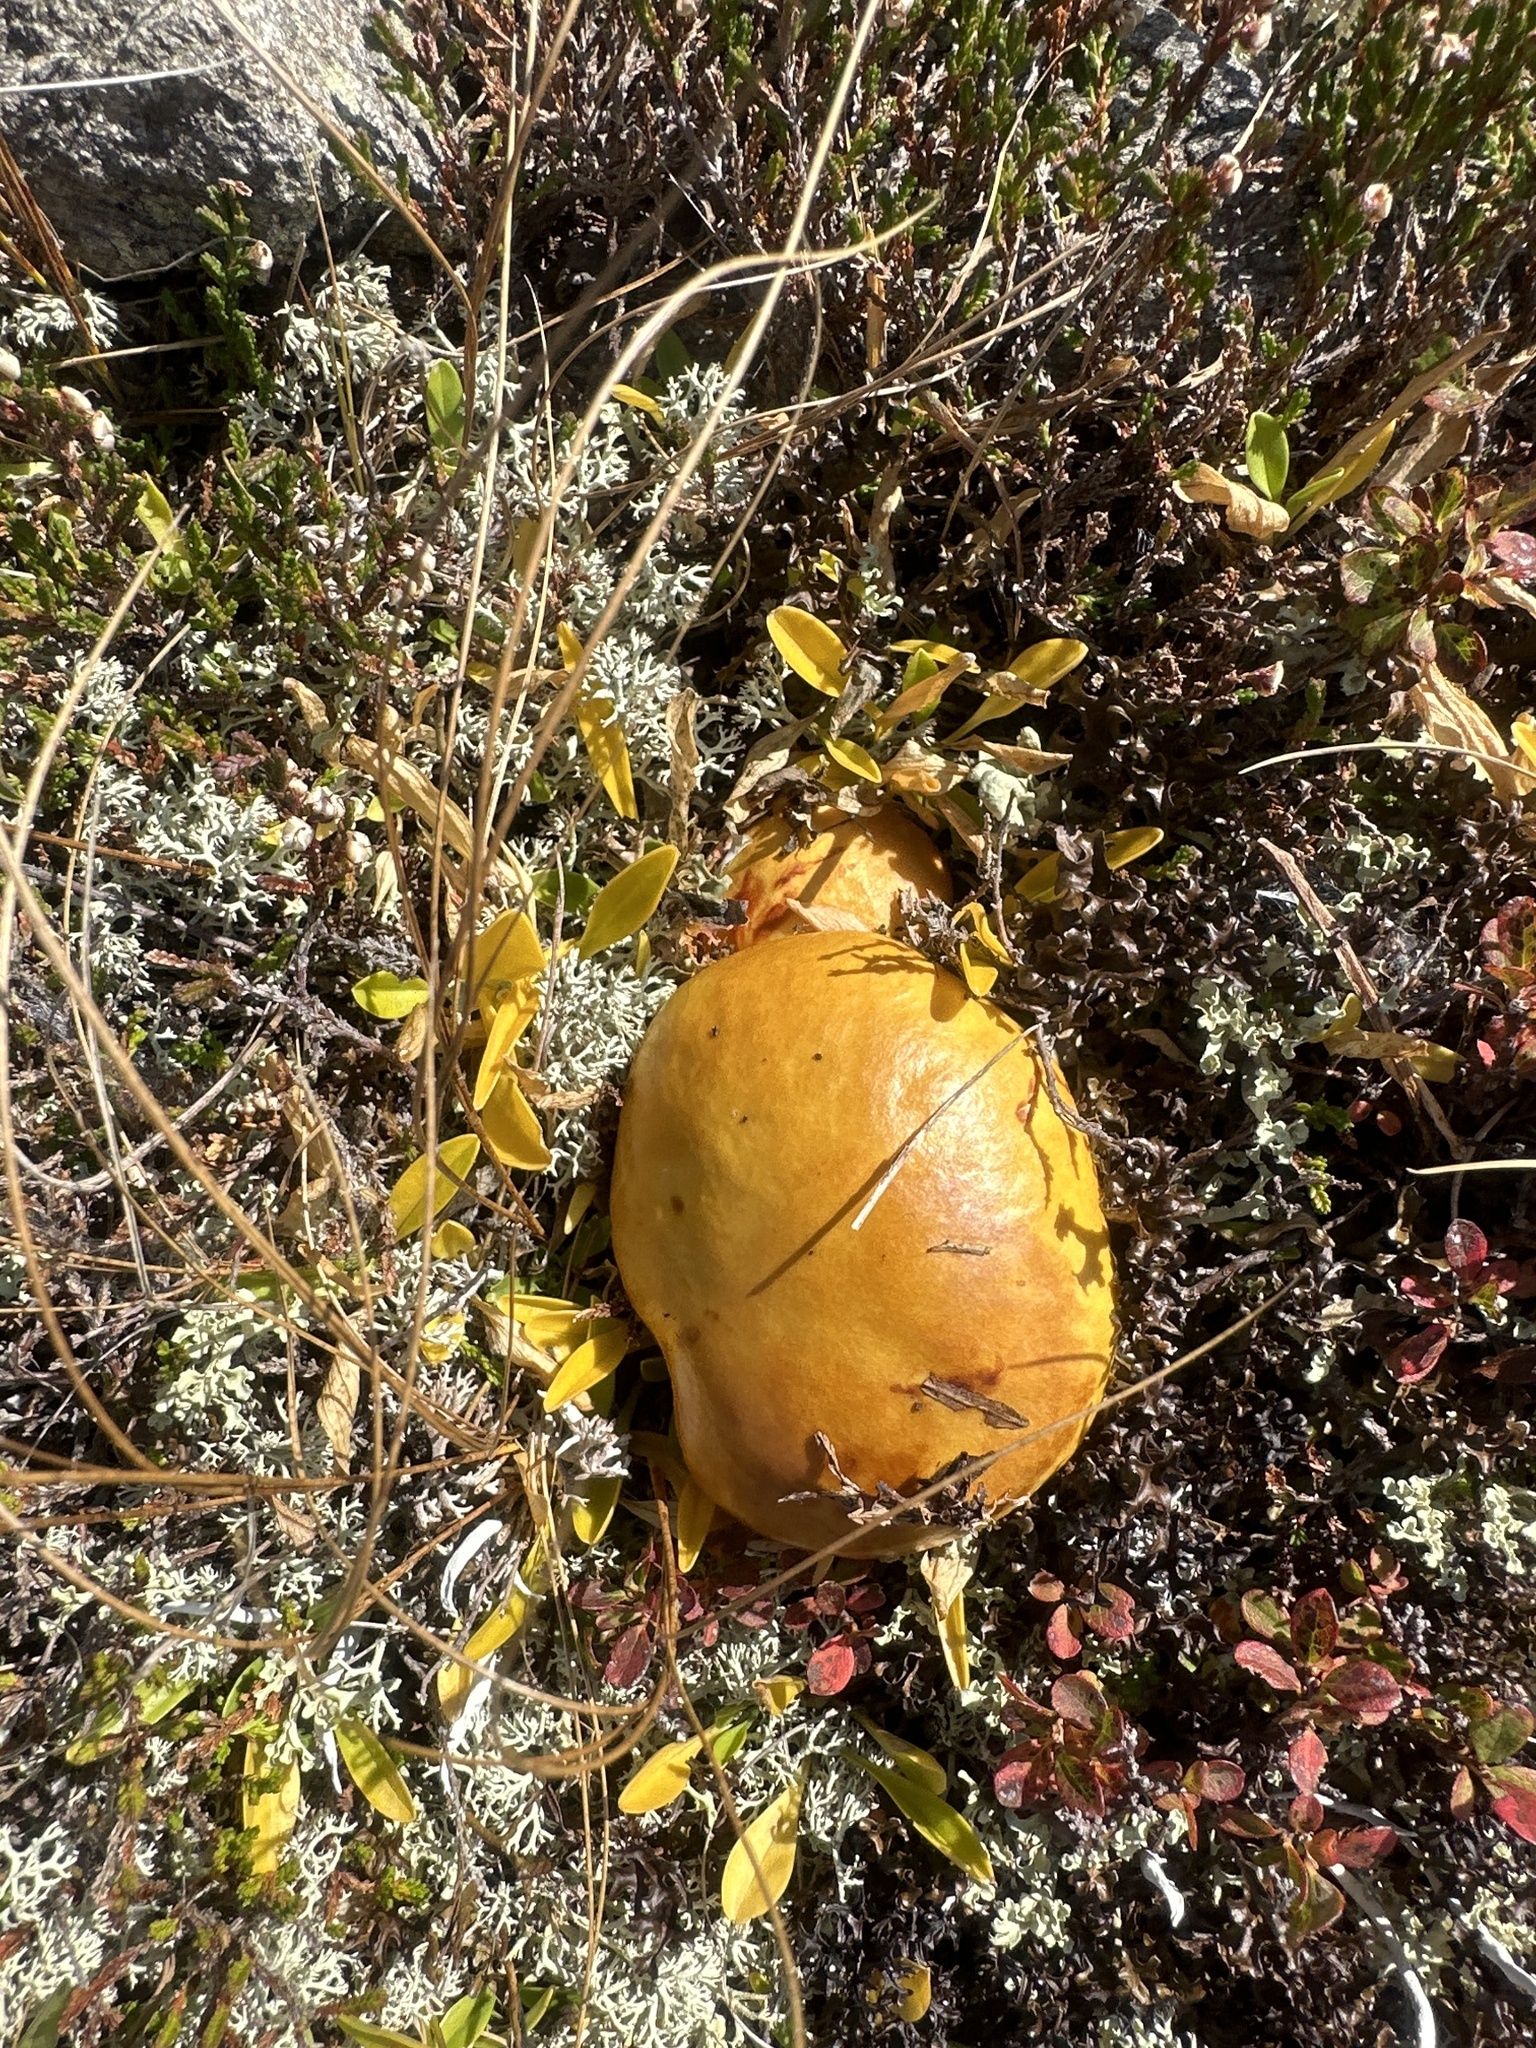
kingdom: Fungi
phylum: Basidiomycota
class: Agaricomycetes
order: Boletales
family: Suillaceae
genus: Suillus
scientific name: Suillus grevillei
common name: Larch bolete
